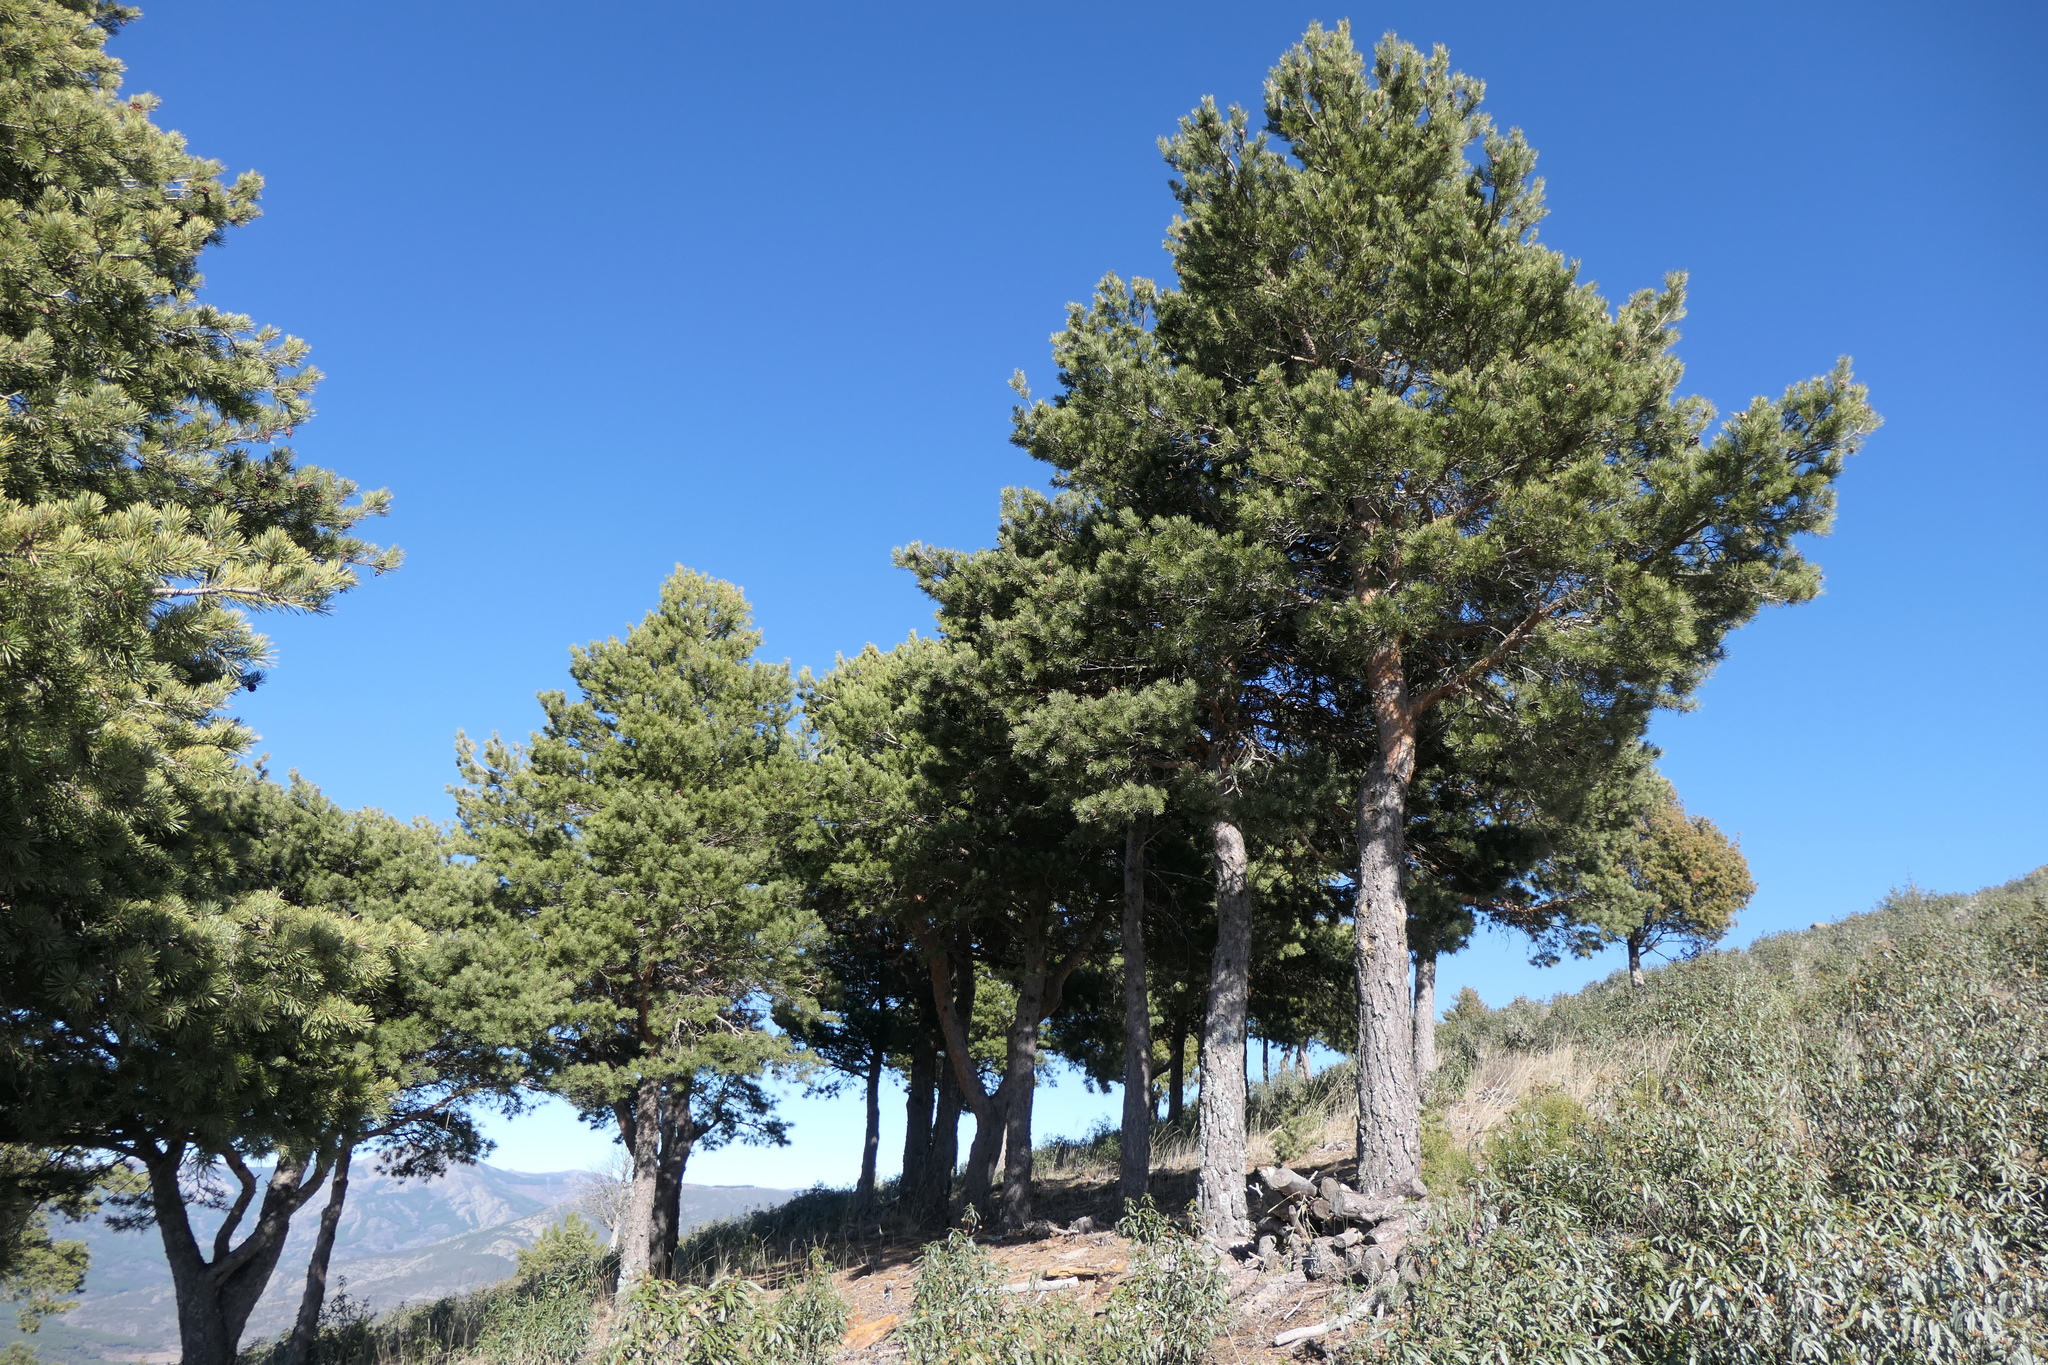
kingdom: Plantae
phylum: Tracheophyta
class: Pinopsida
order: Pinales
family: Pinaceae
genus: Pinus
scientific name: Pinus sylvestris
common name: Scots pine
